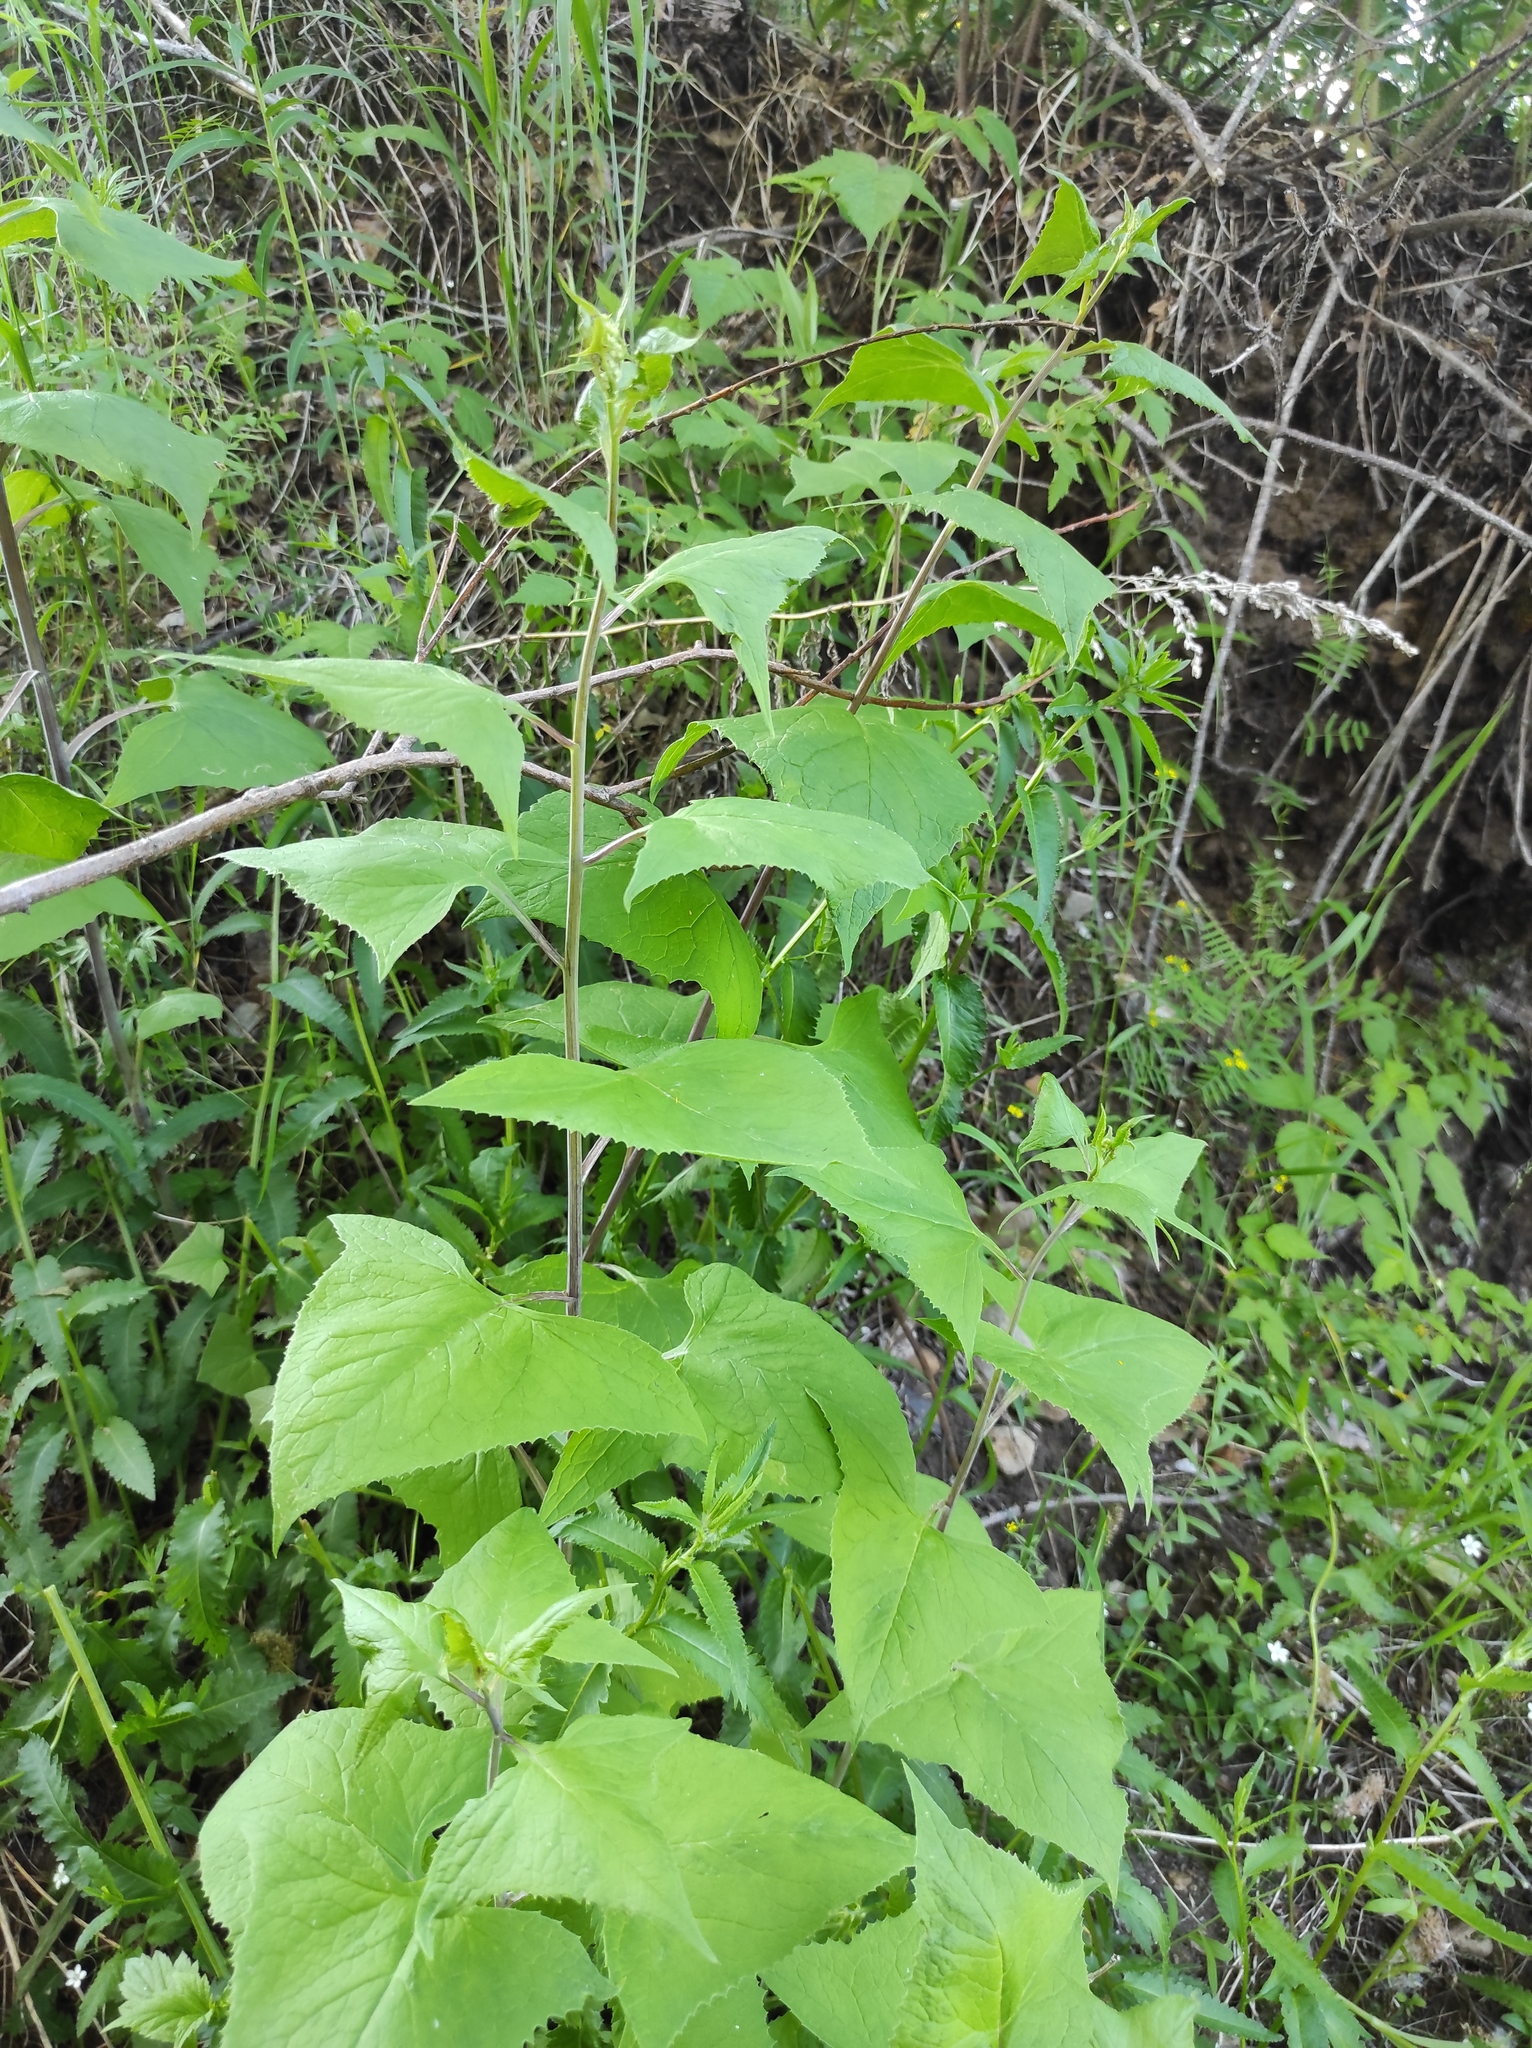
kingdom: Plantae
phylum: Tracheophyta
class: Magnoliopsida
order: Asterales
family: Asteraceae
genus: Parasenecio
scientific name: Parasenecio hastatus
